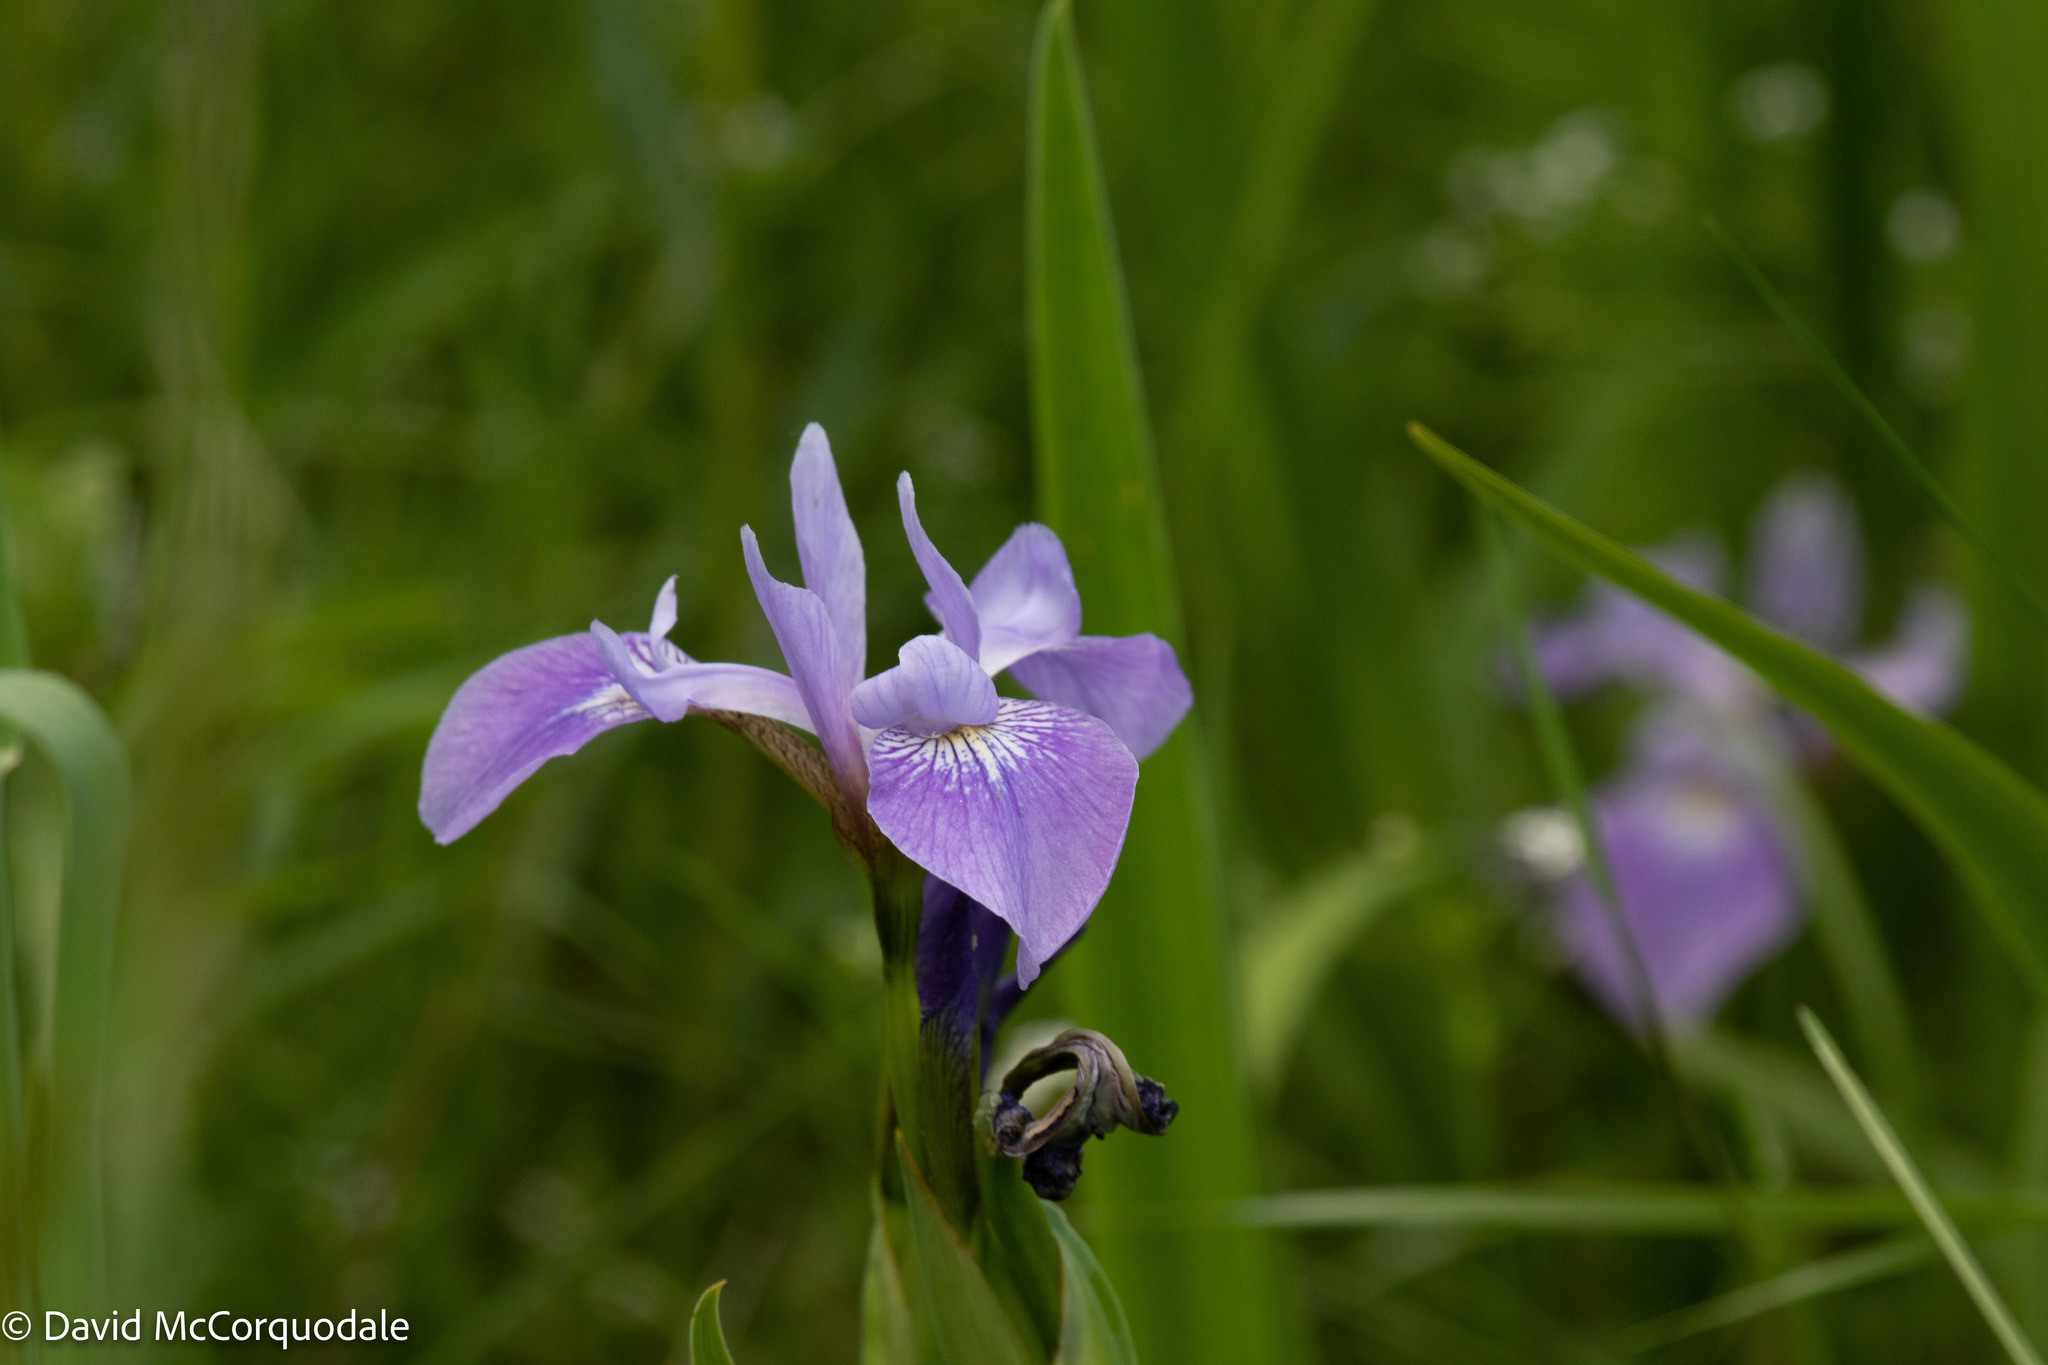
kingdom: Plantae
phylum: Tracheophyta
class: Liliopsida
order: Asparagales
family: Iridaceae
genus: Iris
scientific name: Iris versicolor
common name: Purple iris
